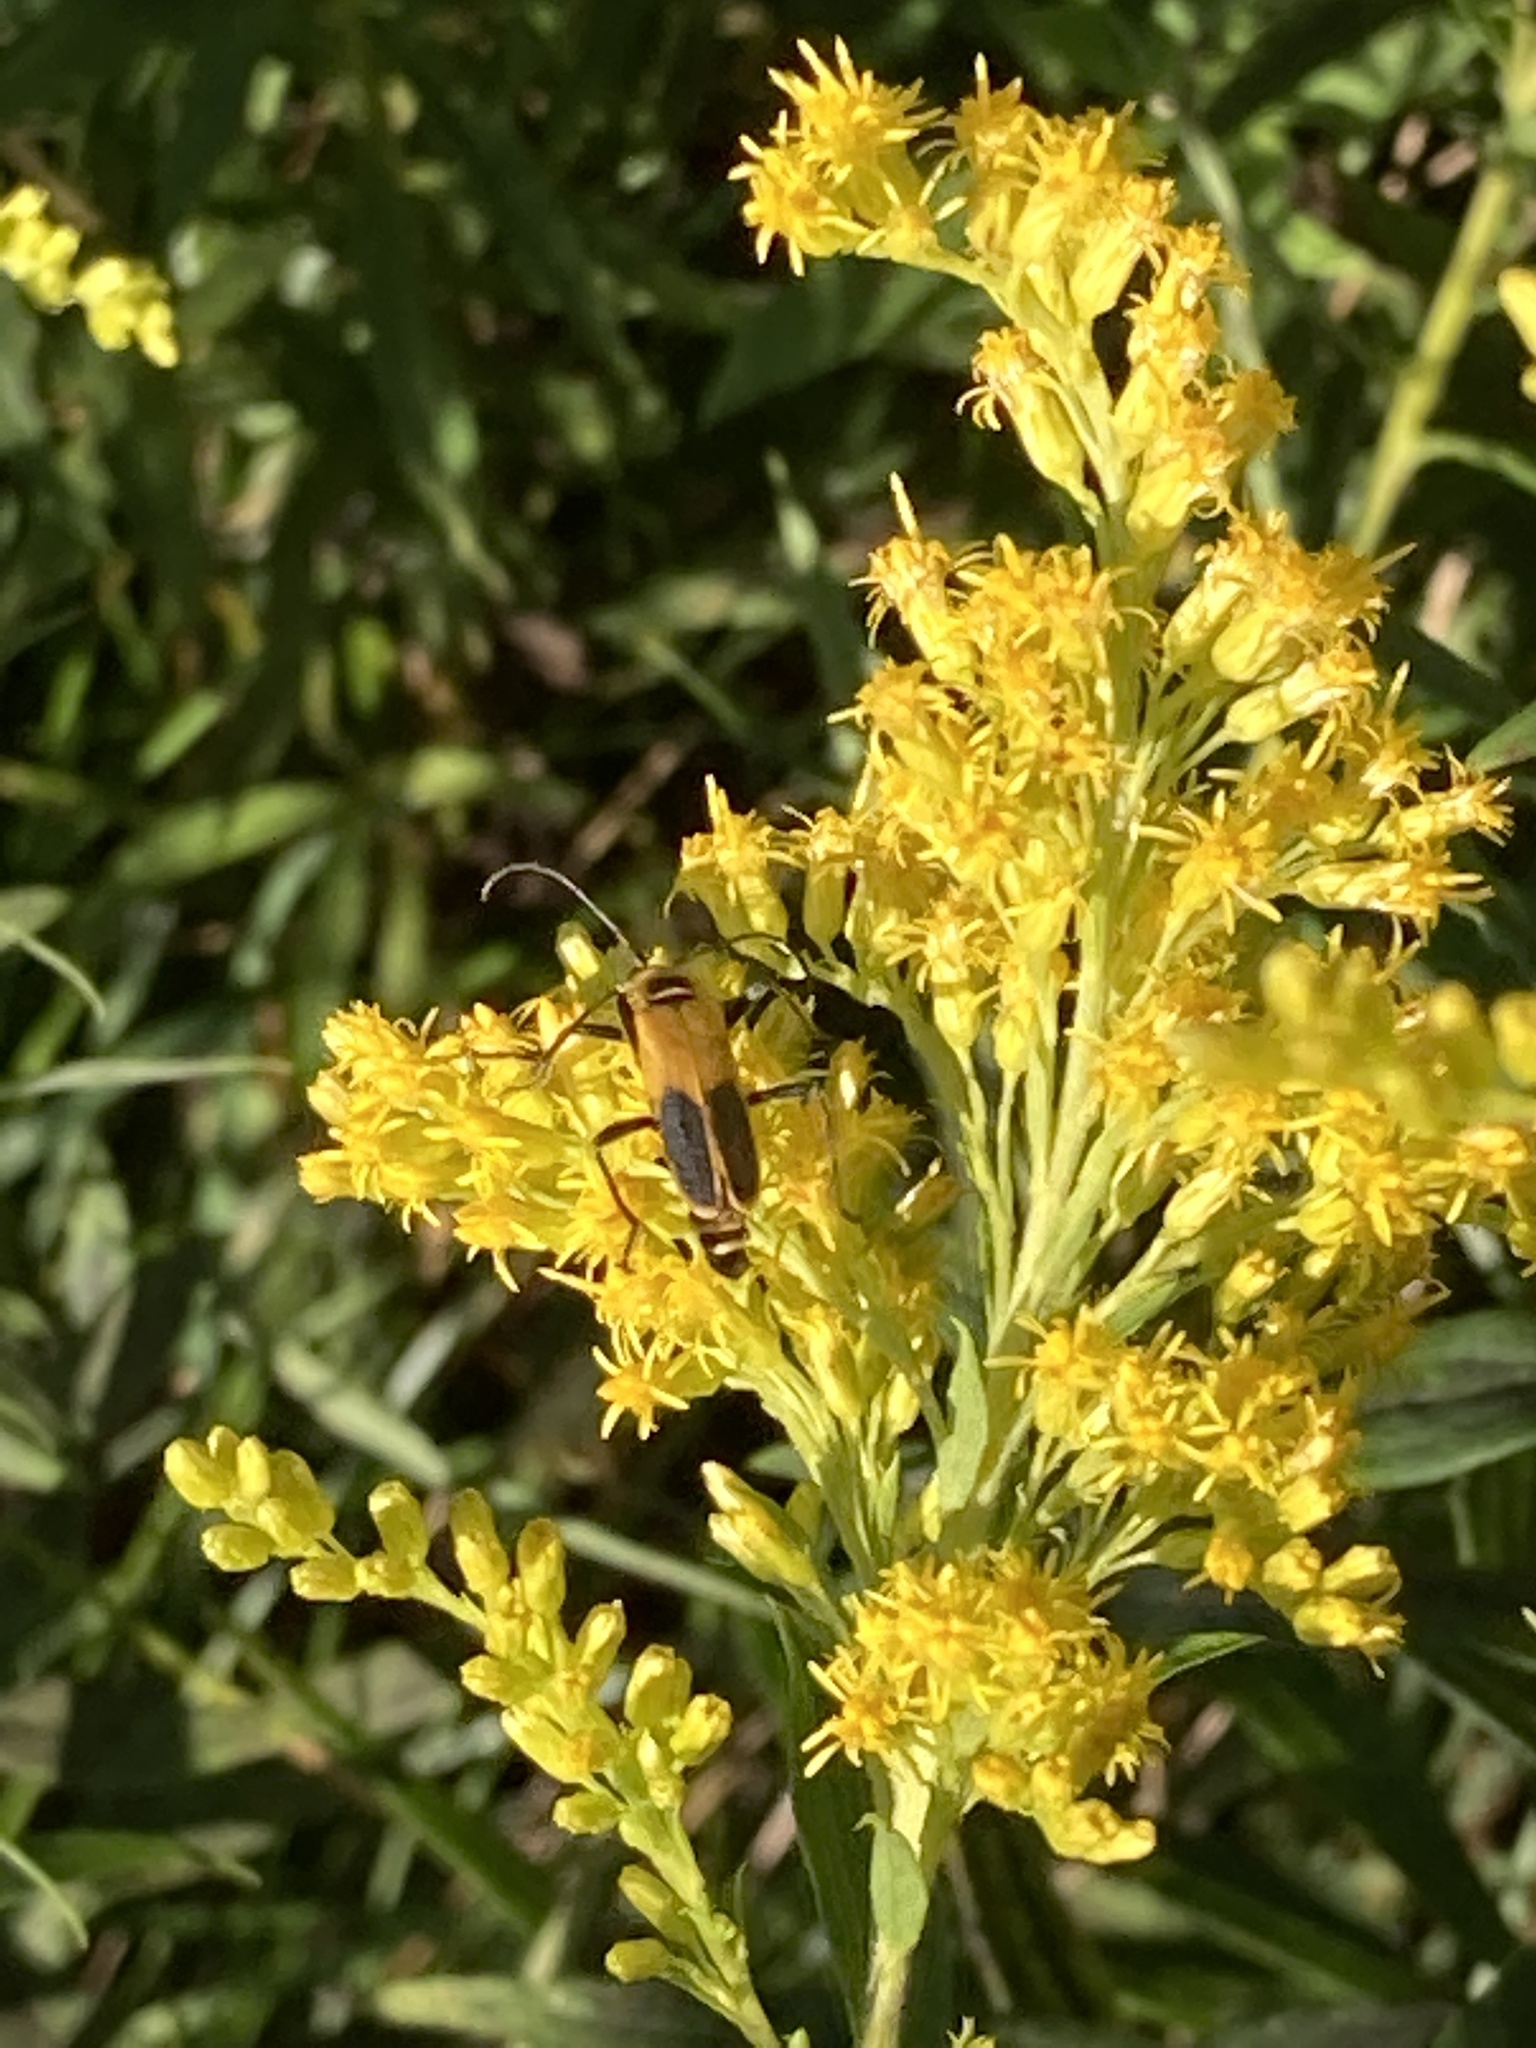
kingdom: Animalia
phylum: Arthropoda
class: Insecta
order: Coleoptera
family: Cantharidae
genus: Chauliognathus
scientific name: Chauliognathus pensylvanicus
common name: Goldenrod soldier beetle
